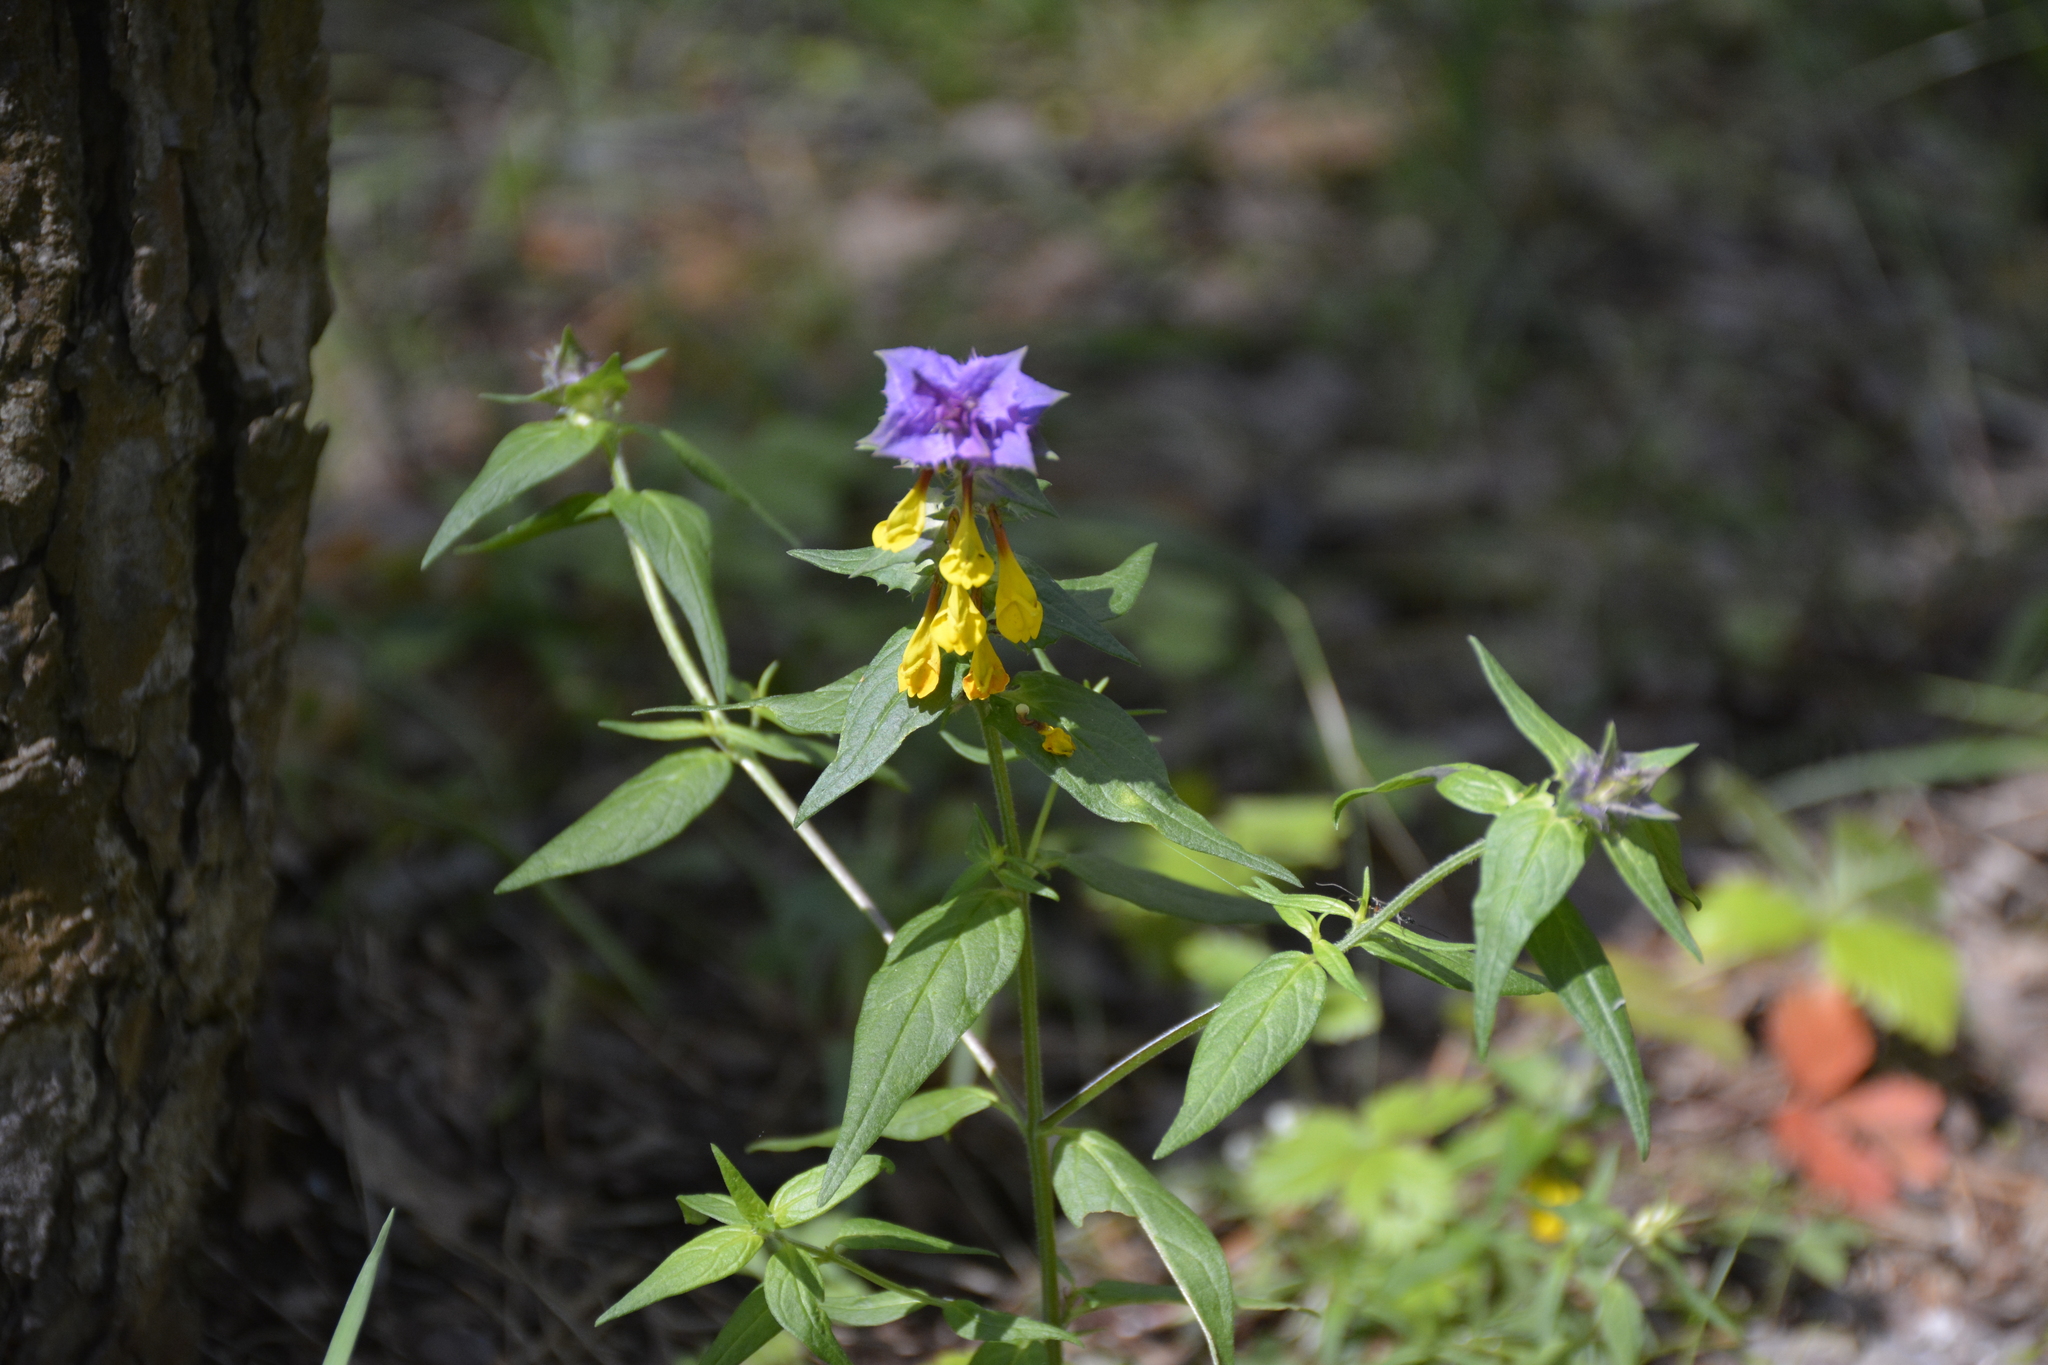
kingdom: Plantae
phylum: Tracheophyta
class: Magnoliopsida
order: Lamiales
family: Orobanchaceae
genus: Melampyrum
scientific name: Melampyrum nemorosum
